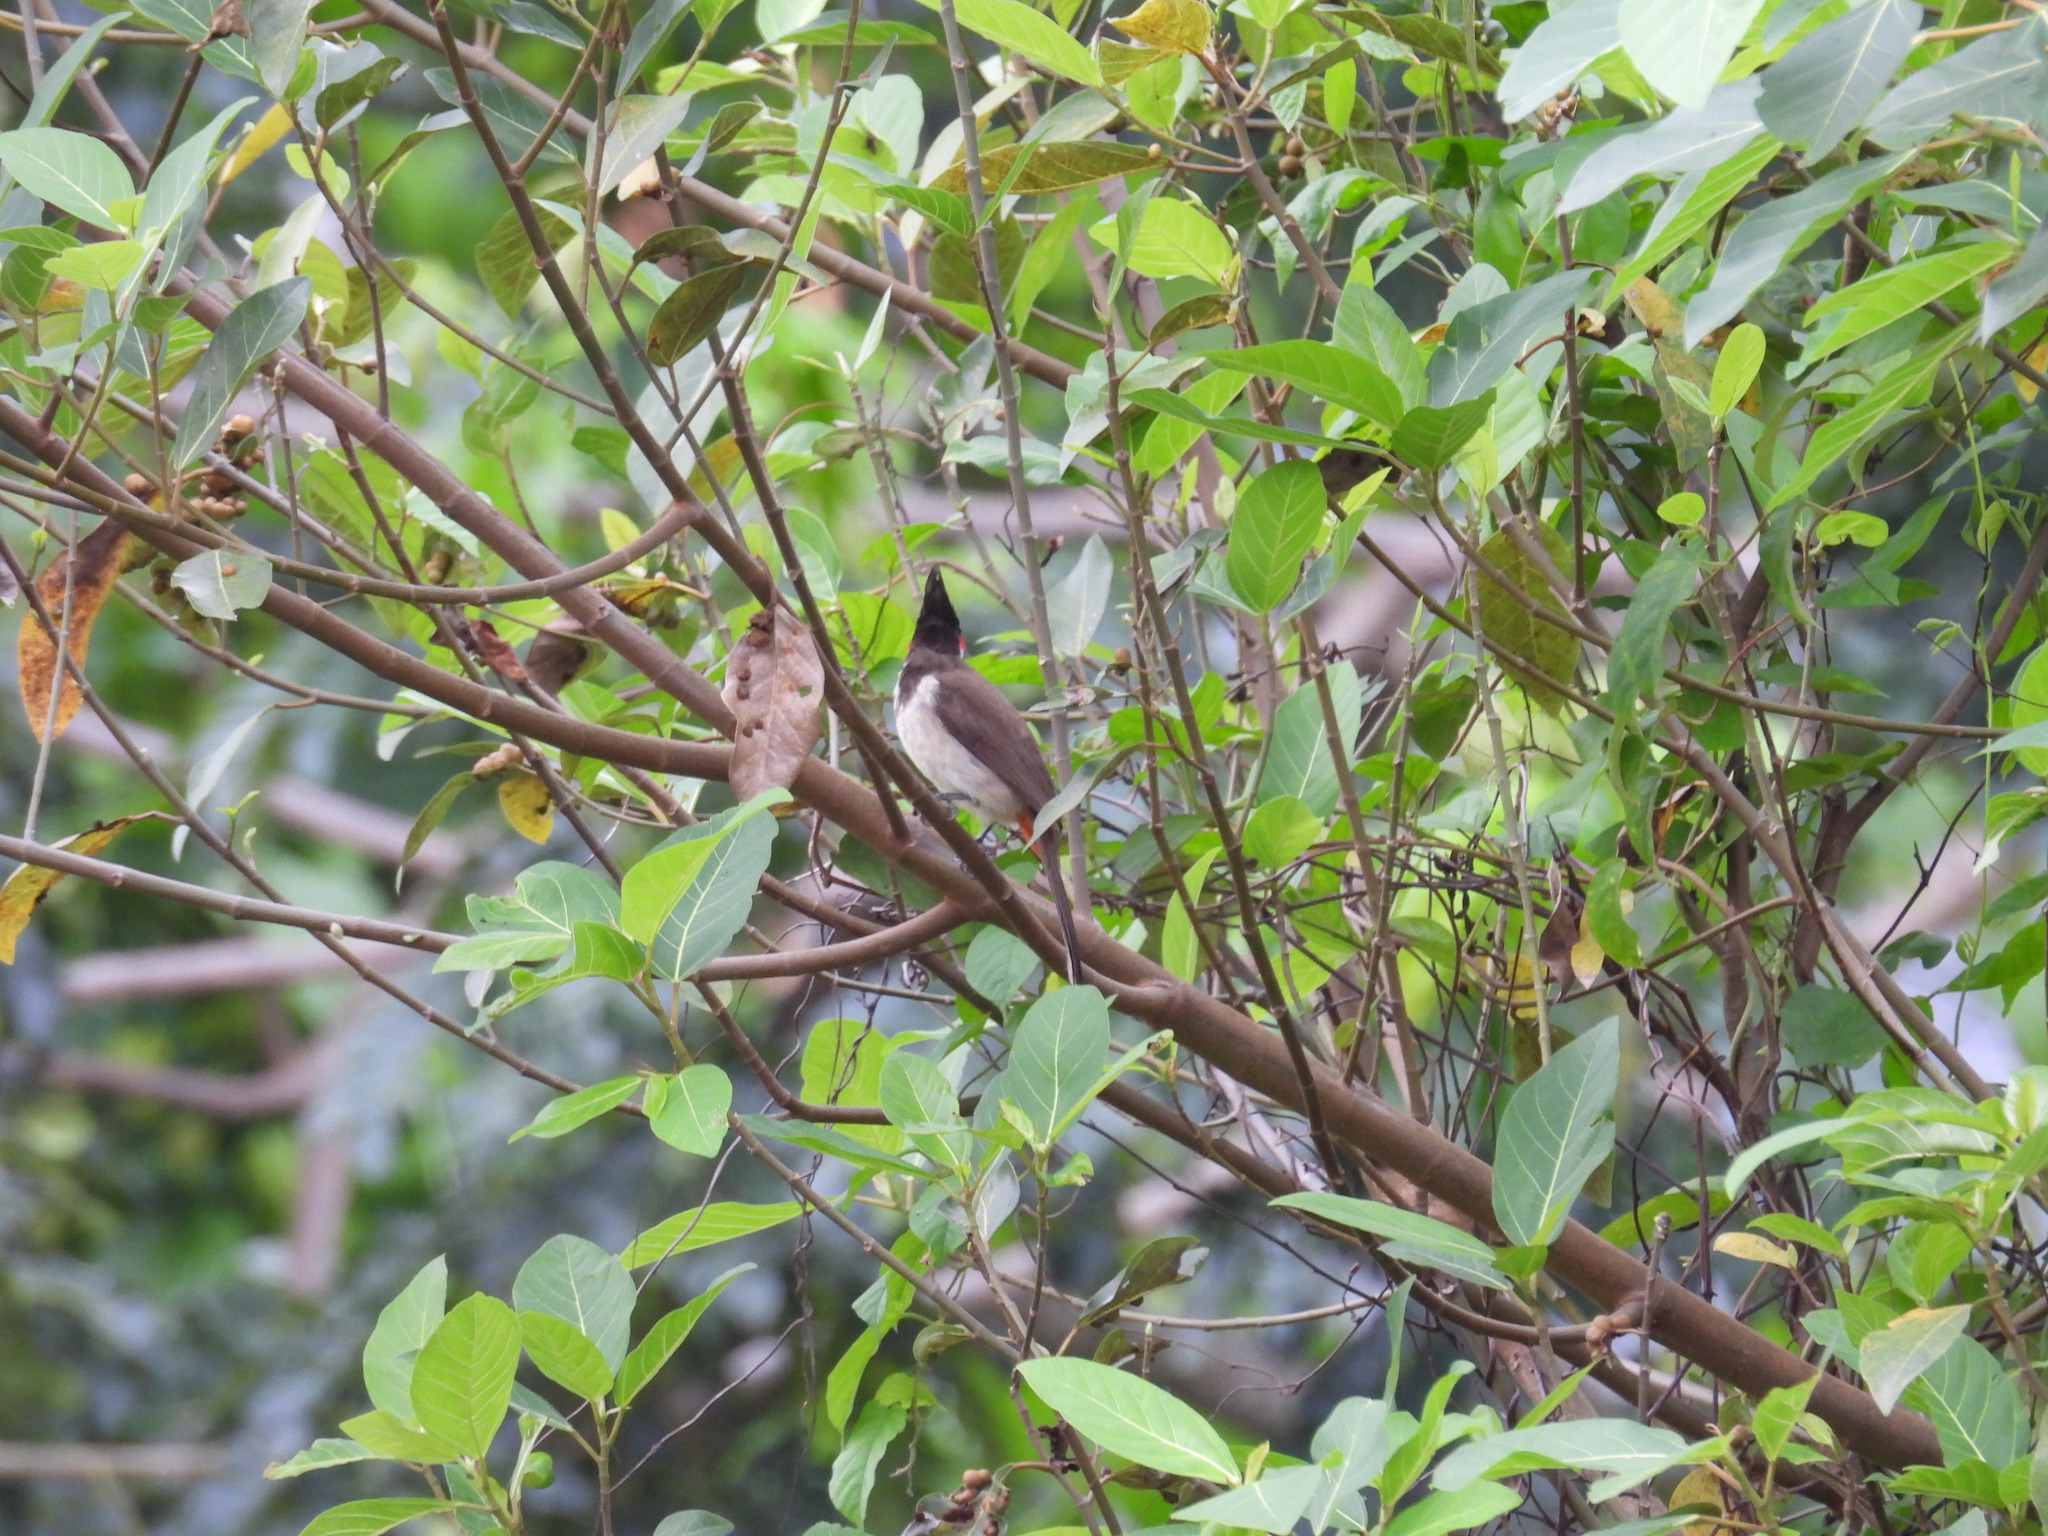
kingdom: Animalia
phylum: Chordata
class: Aves
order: Passeriformes
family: Pycnonotidae
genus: Pycnonotus
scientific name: Pycnonotus jocosus
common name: Red-whiskered bulbul
